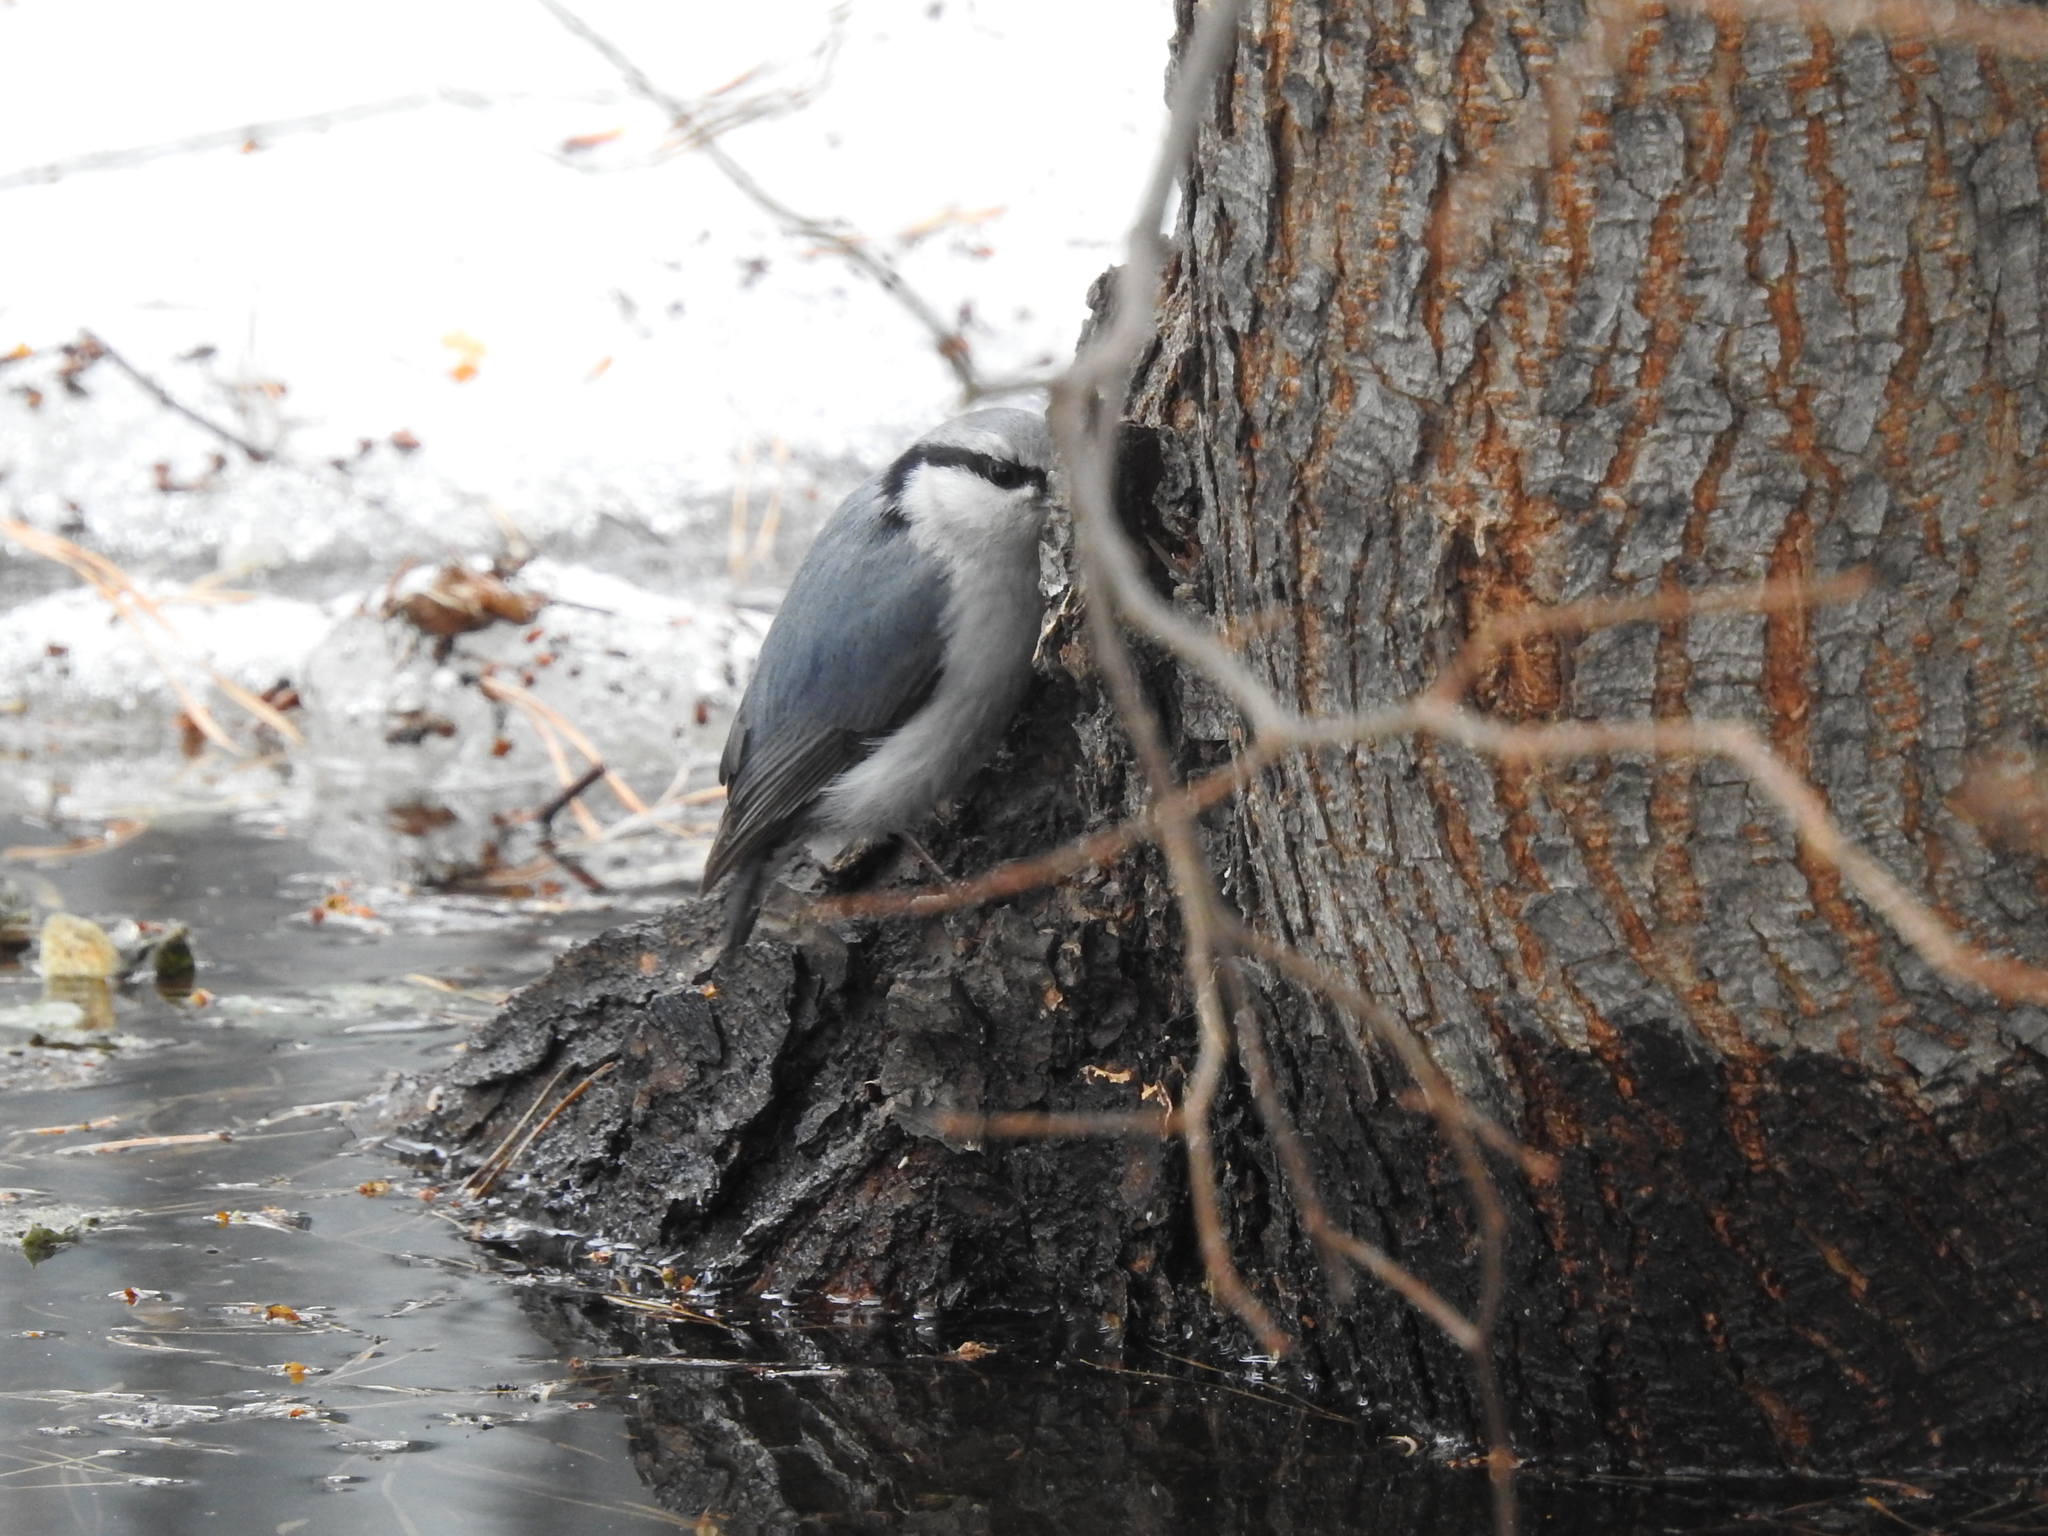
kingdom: Animalia
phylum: Chordata
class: Aves
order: Passeriformes
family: Sittidae
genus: Sitta
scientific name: Sitta europaea
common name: Eurasian nuthatch
